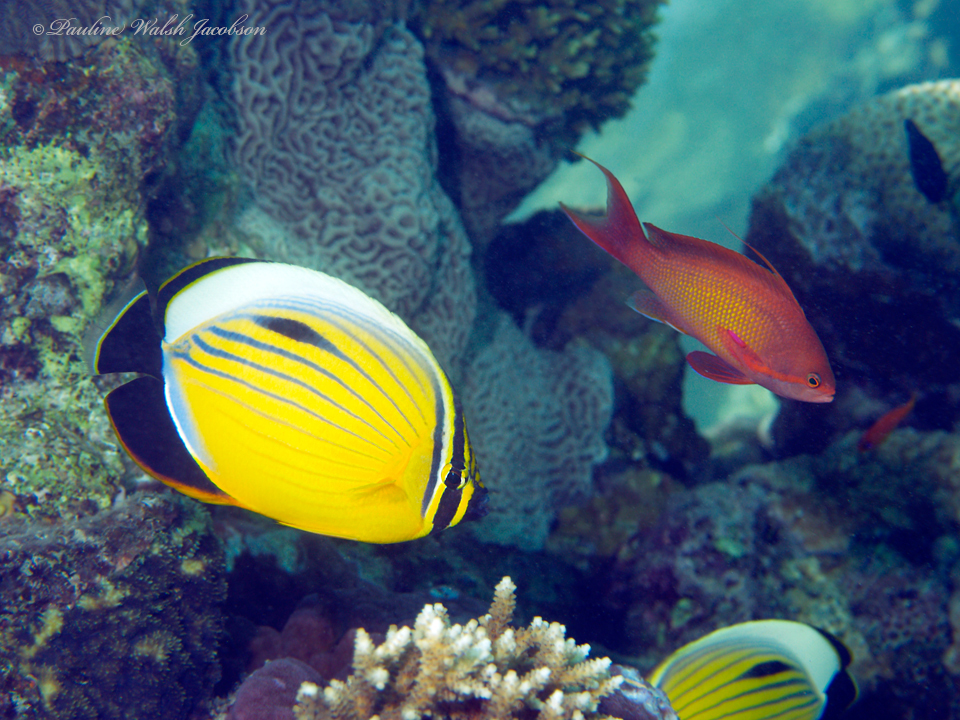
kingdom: Animalia
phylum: Chordata
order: Perciformes
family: Serranidae
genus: Pseudanthias
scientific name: Pseudanthias squamipinnis
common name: Scalefin anthias
